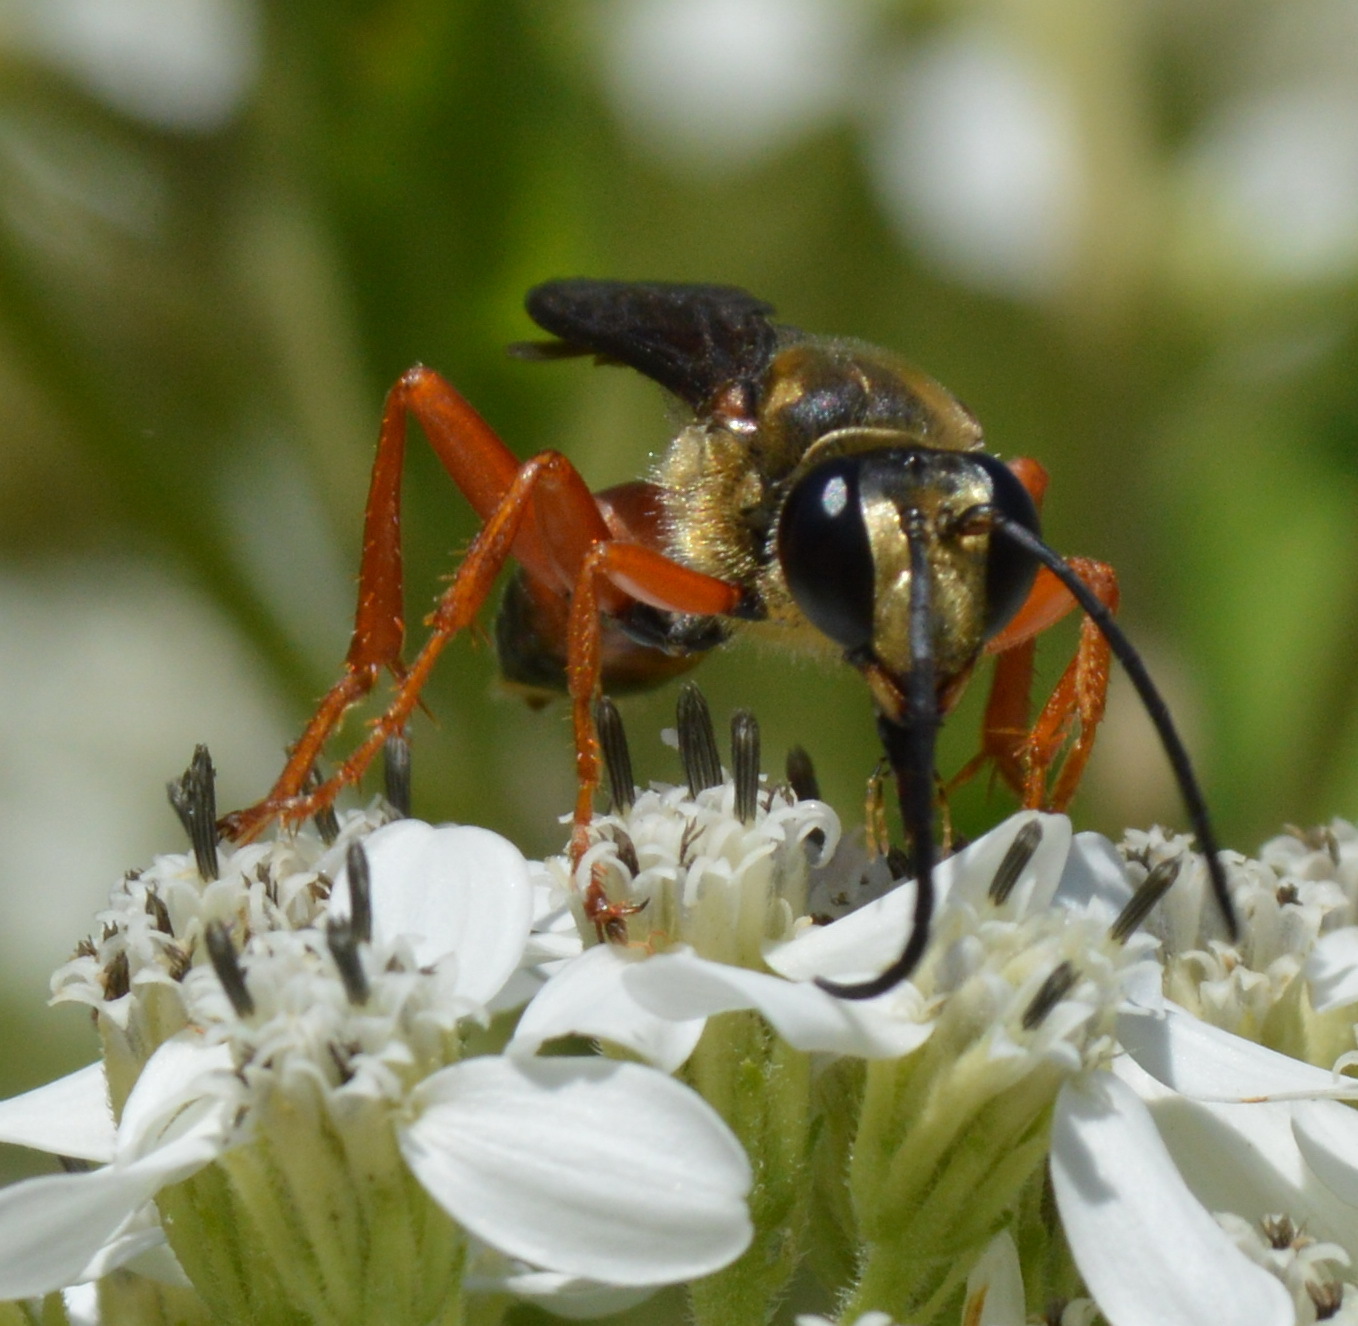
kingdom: Animalia
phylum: Arthropoda
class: Insecta
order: Hymenoptera
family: Sphecidae
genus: Sphex
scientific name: Sphex ichneumoneus
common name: Great golden digger wasp
